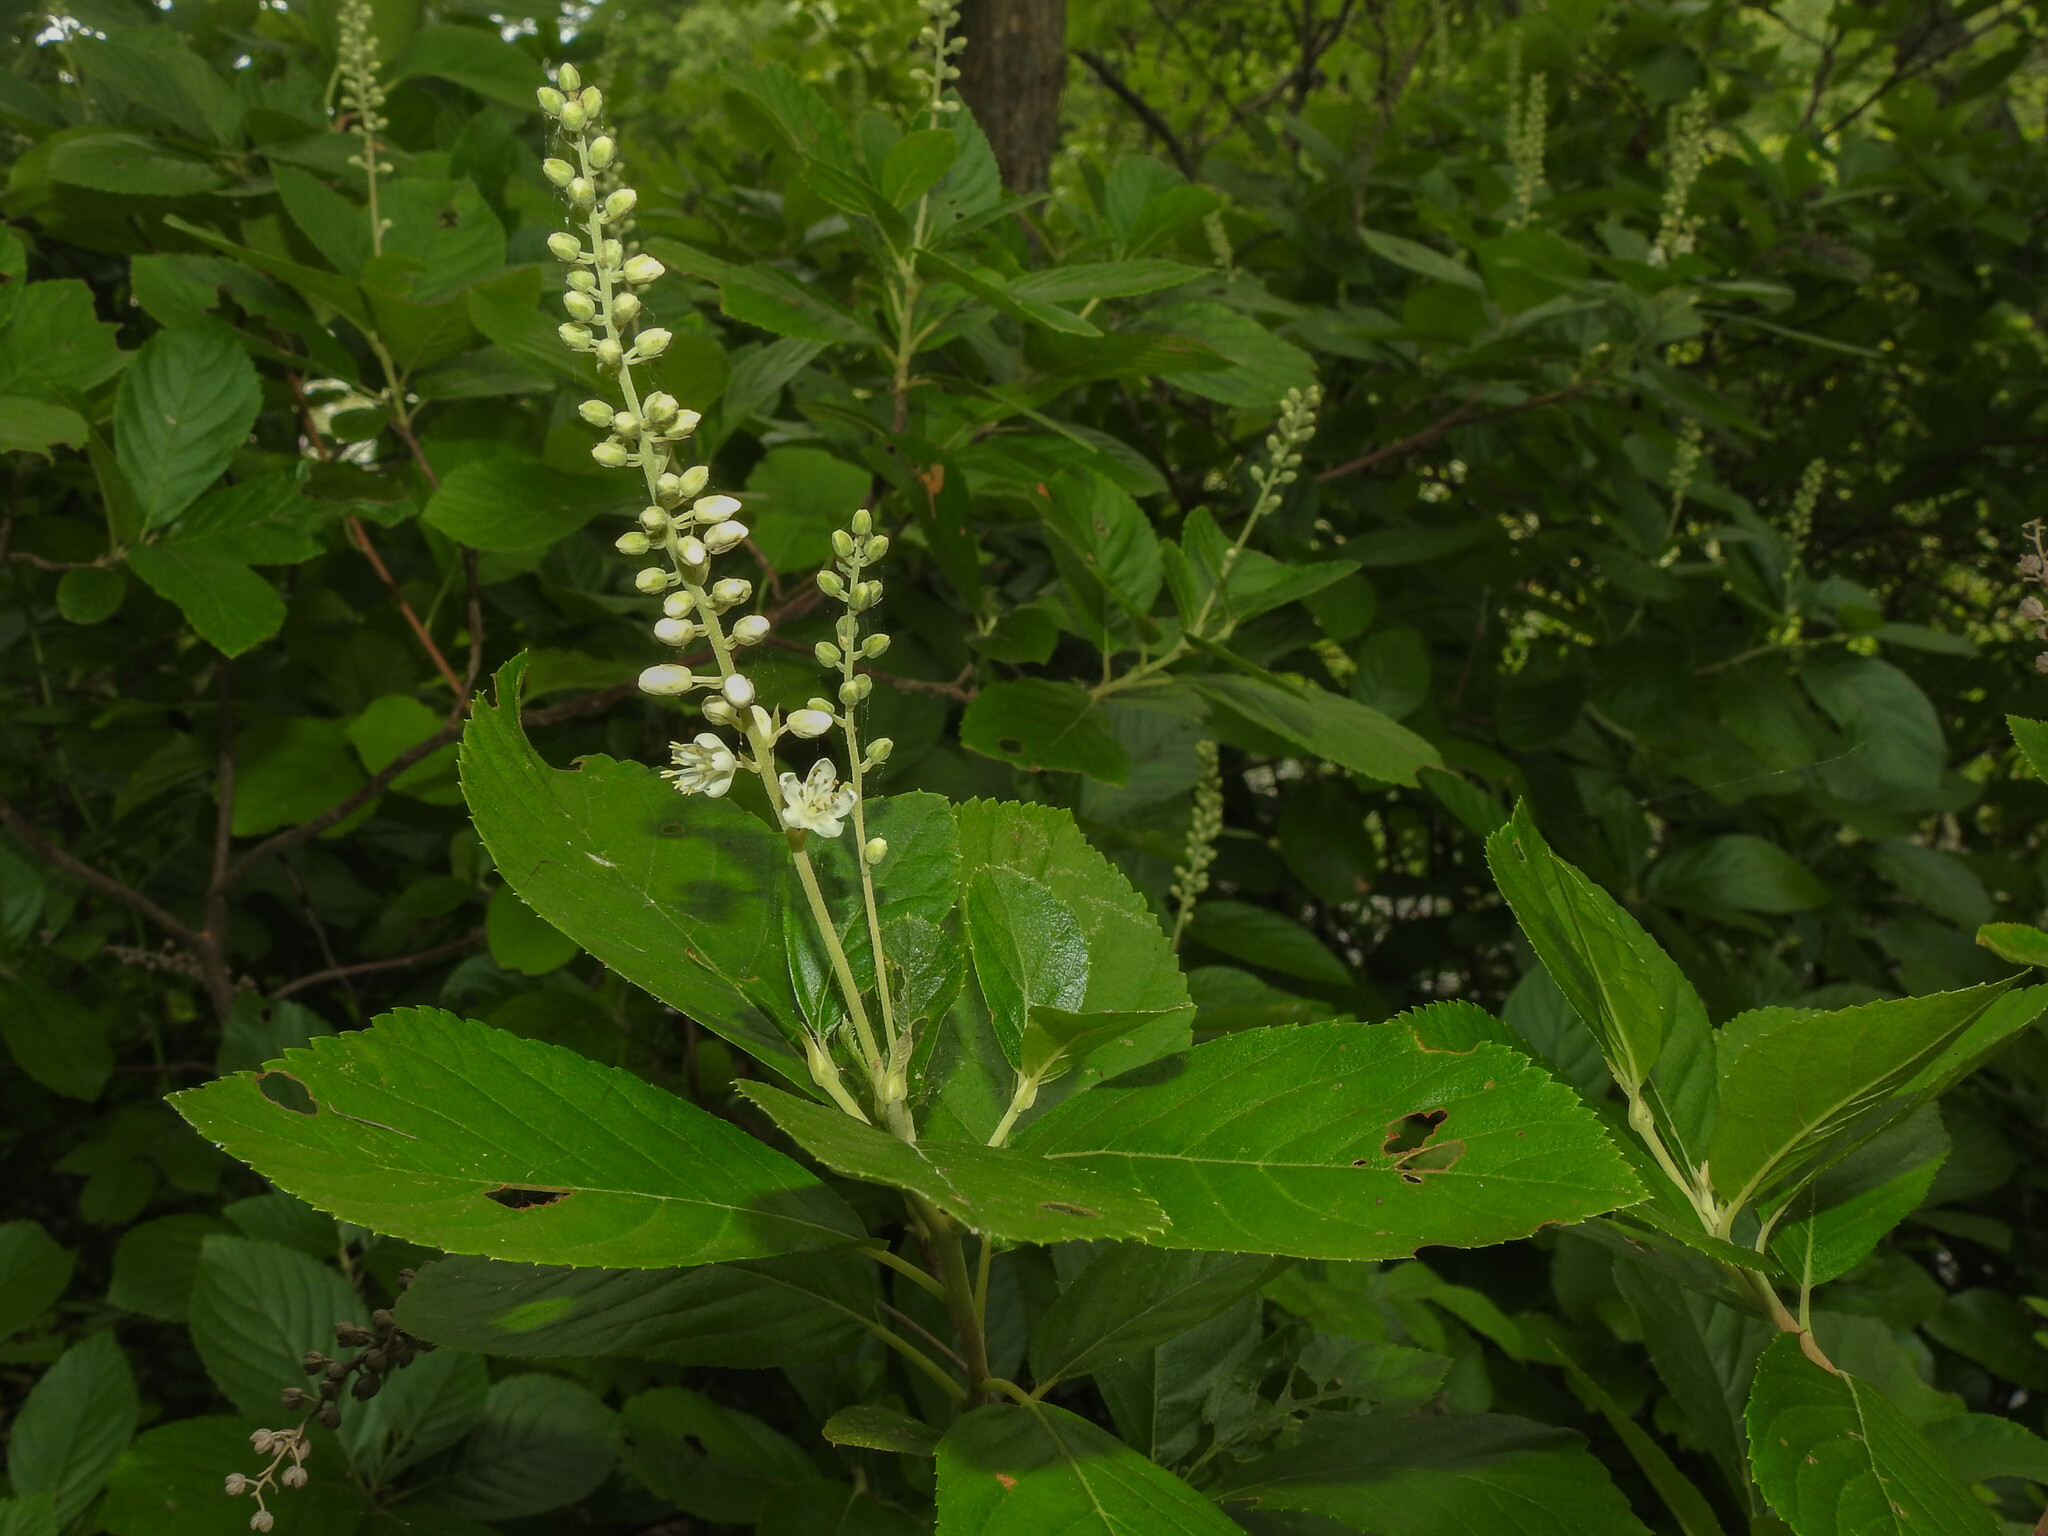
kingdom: Plantae
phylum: Tracheophyta
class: Magnoliopsida
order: Ericales
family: Clethraceae
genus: Clethra
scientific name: Clethra alnifolia
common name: Sweet pepperbush
